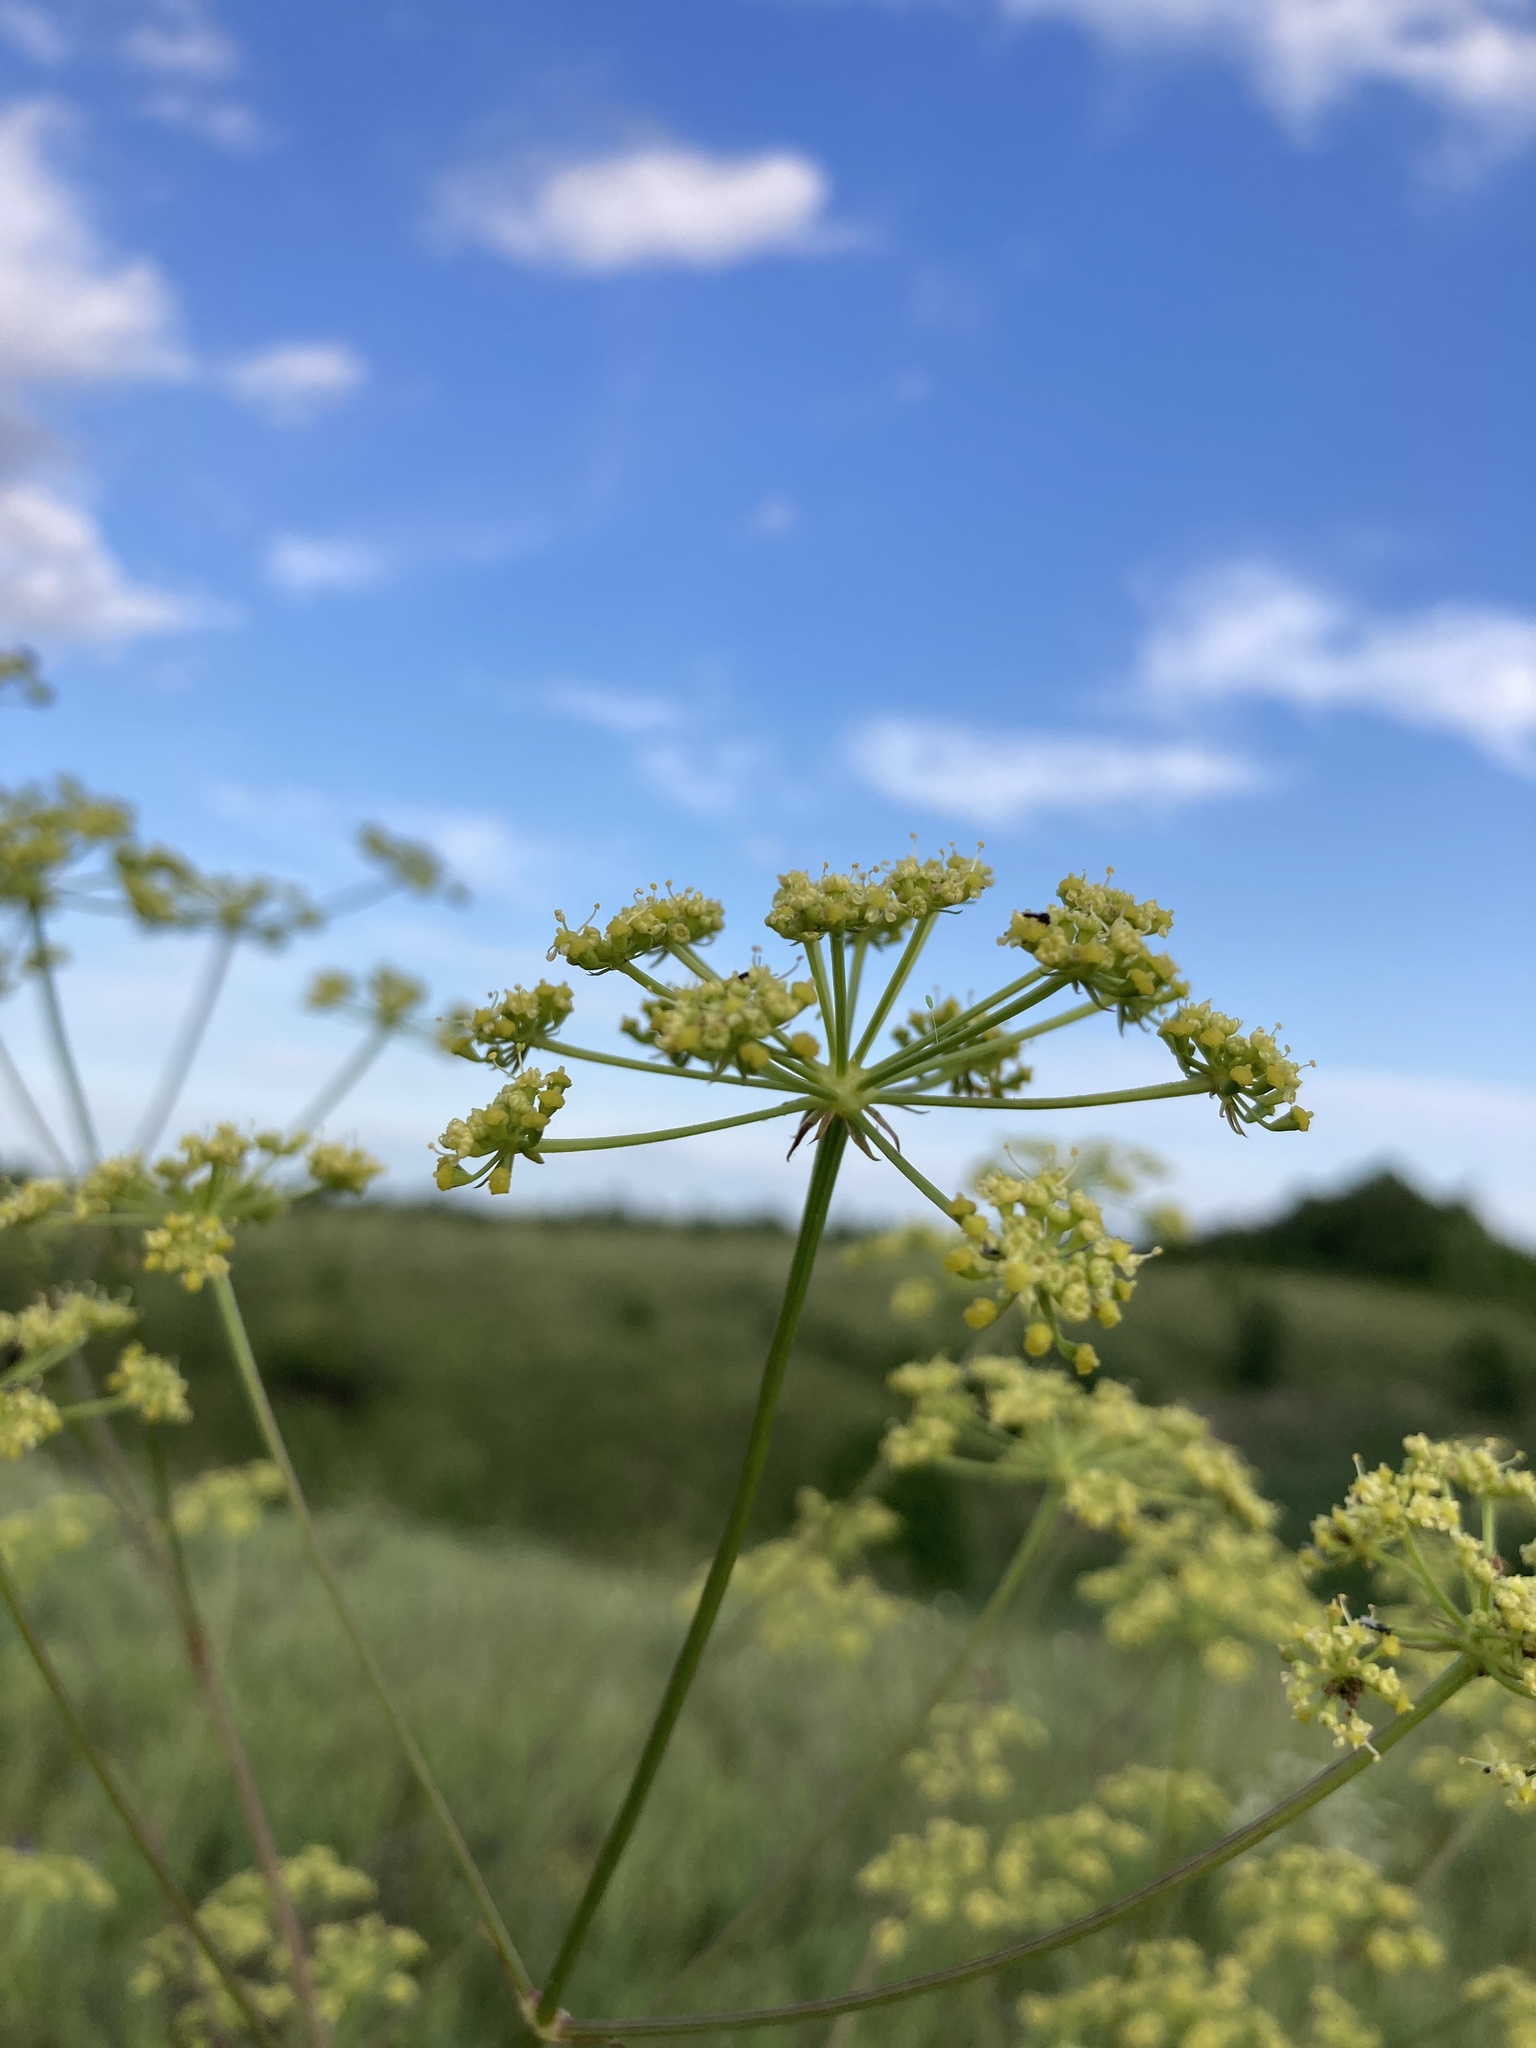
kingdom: Plantae
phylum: Tracheophyta
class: Magnoliopsida
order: Apiales
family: Apiaceae
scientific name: Apiaceae
